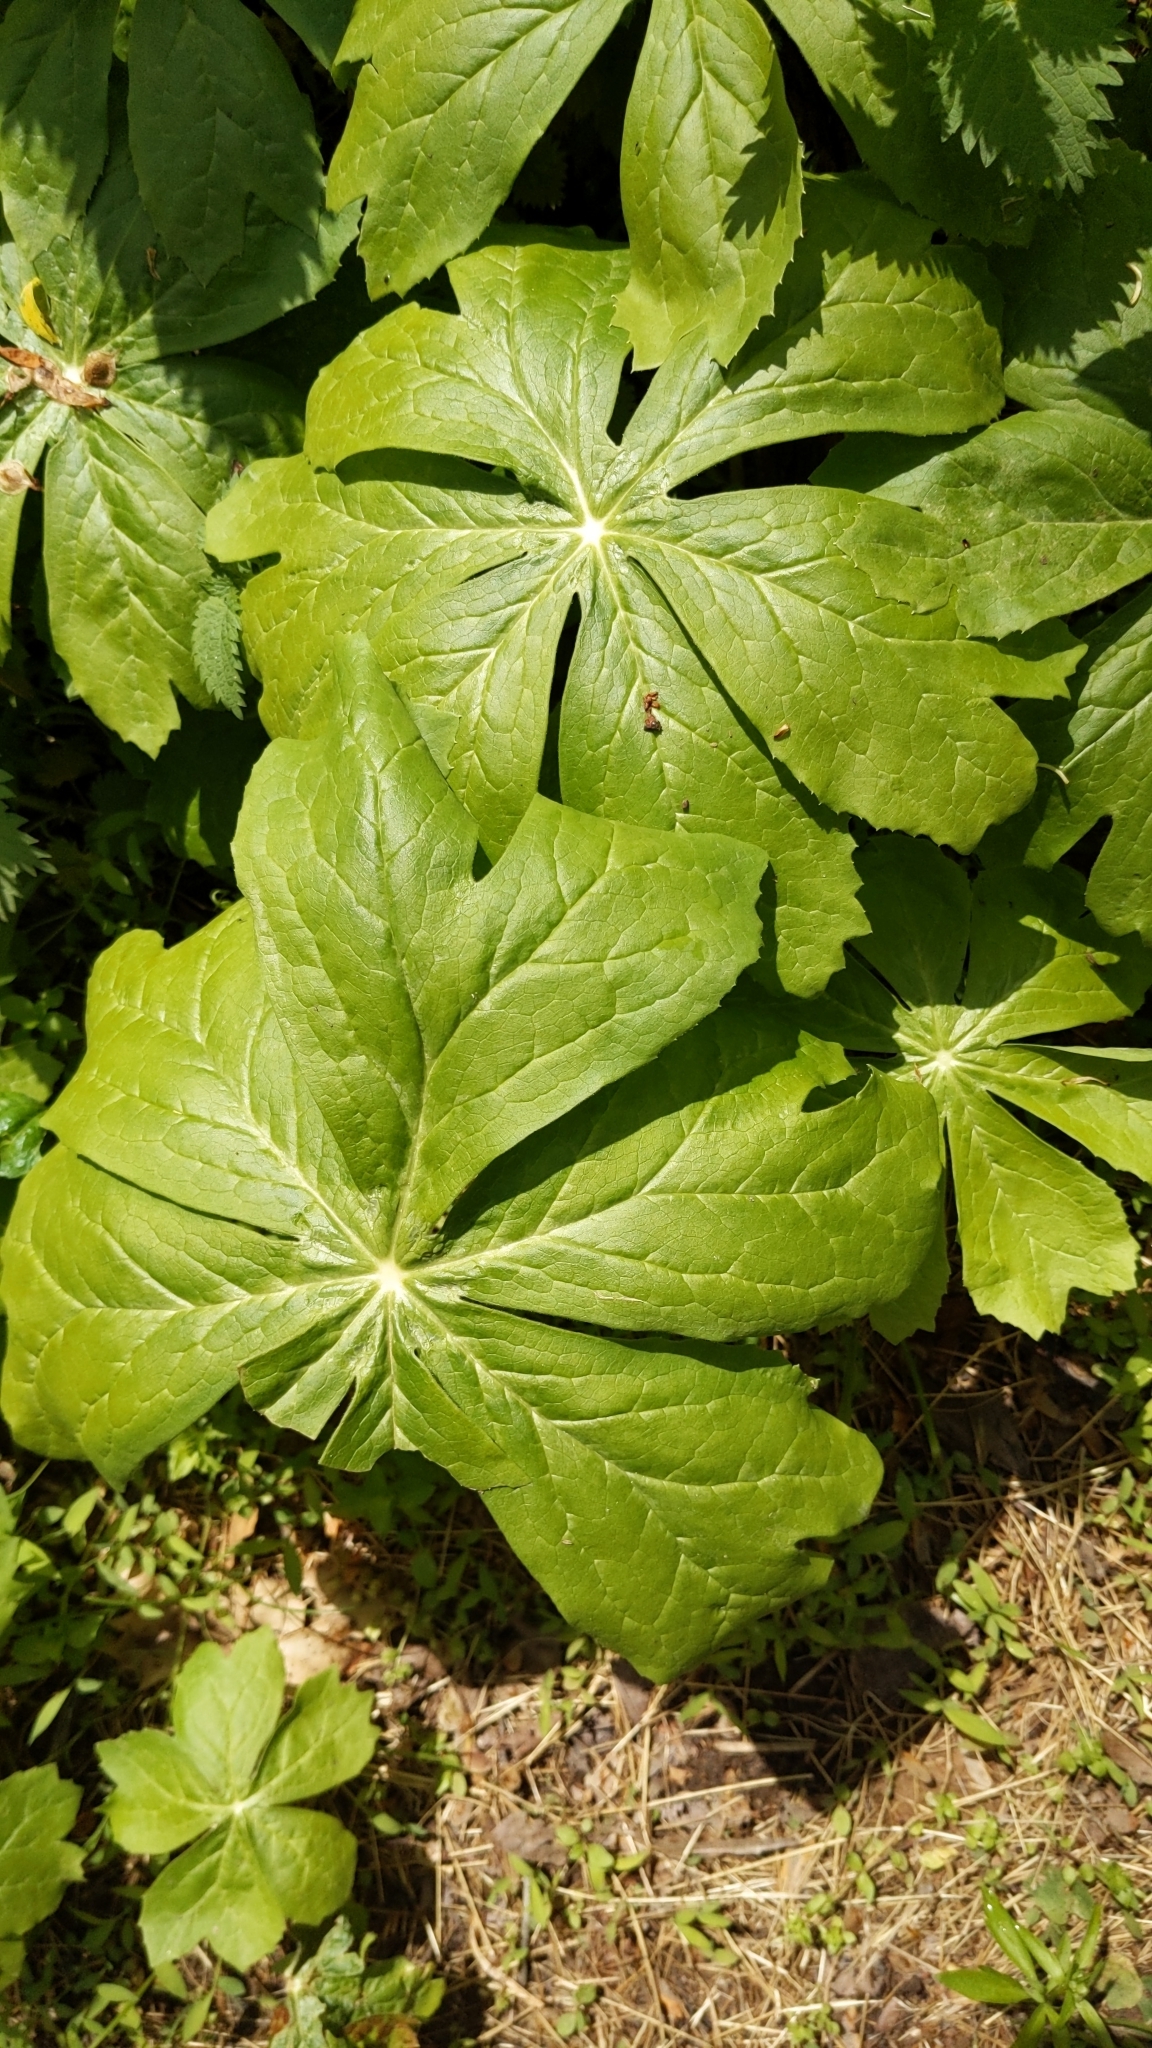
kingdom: Plantae
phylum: Tracheophyta
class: Magnoliopsida
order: Ranunculales
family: Berberidaceae
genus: Podophyllum
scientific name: Podophyllum peltatum
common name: Wild mandrake
